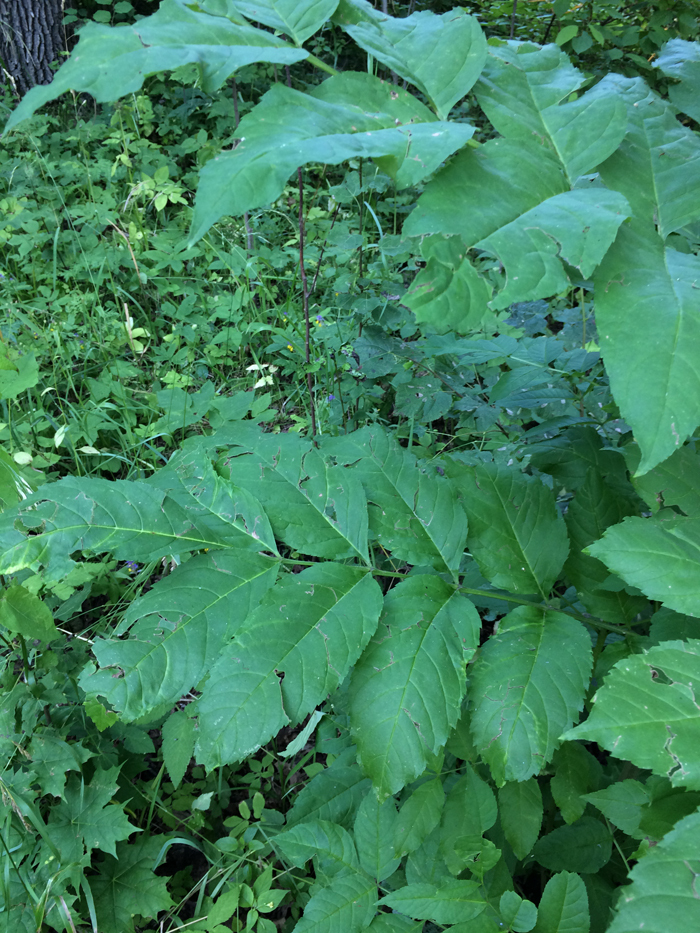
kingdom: Plantae
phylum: Tracheophyta
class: Magnoliopsida
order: Lamiales
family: Oleaceae
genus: Fraxinus
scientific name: Fraxinus excelsior
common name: European ash
